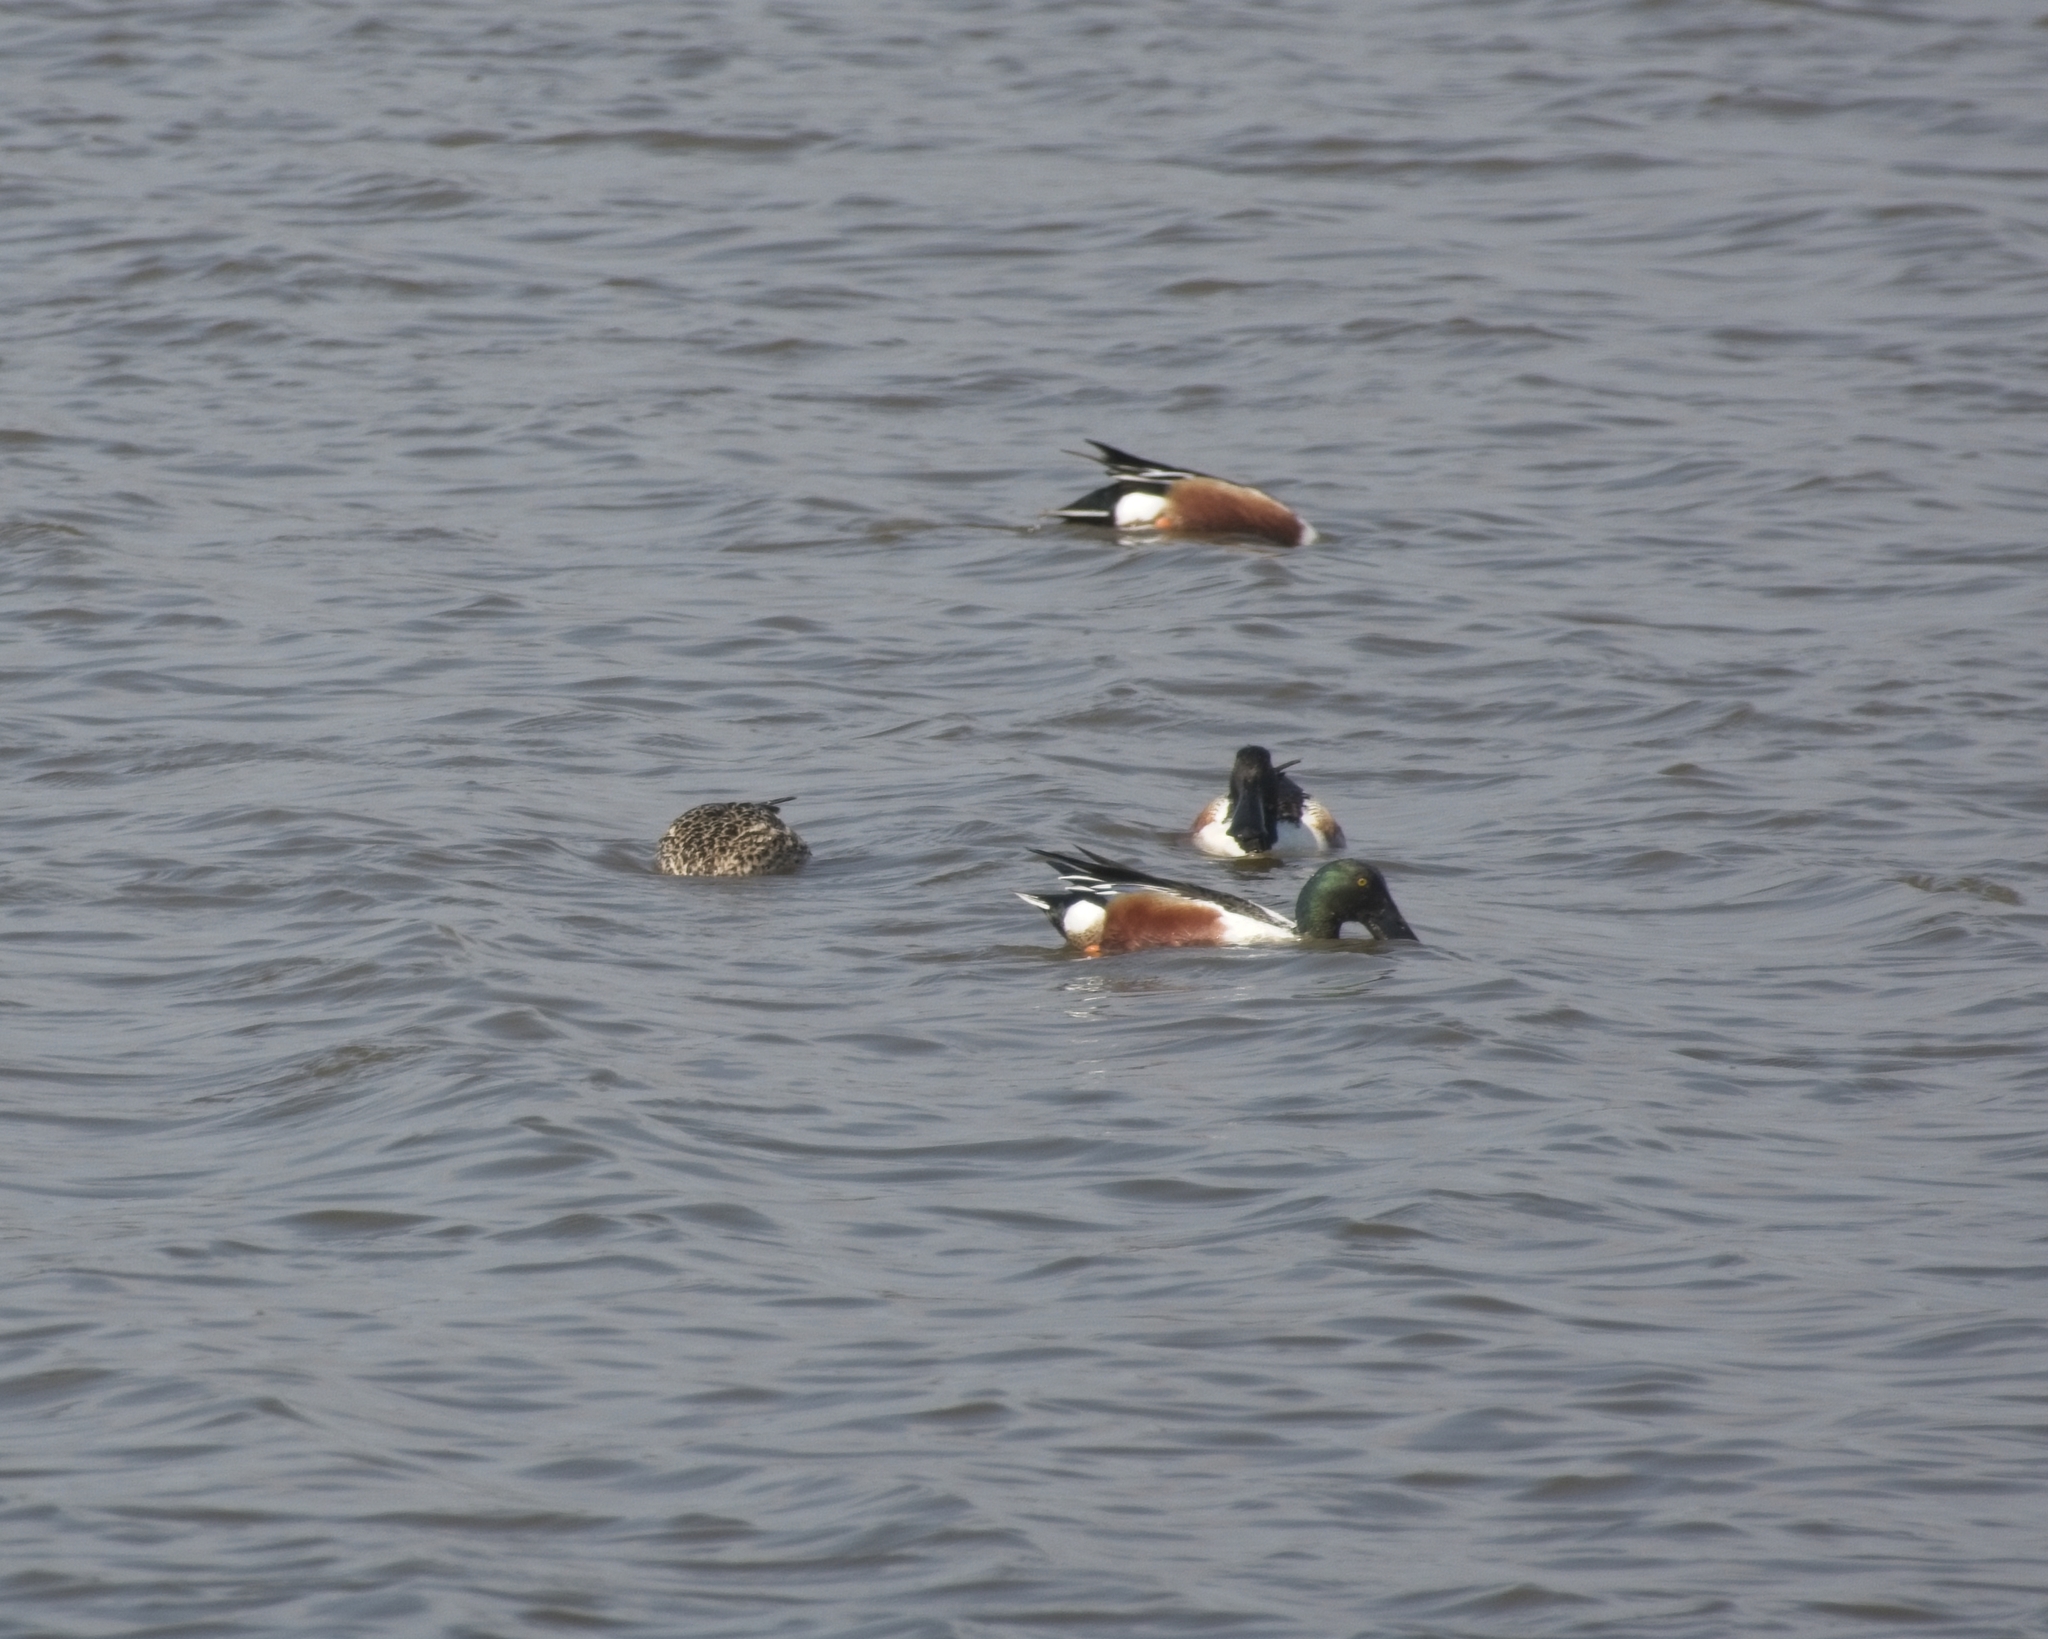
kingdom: Animalia
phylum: Chordata
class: Aves
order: Anseriformes
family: Anatidae
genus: Spatula
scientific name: Spatula clypeata
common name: Northern shoveler
